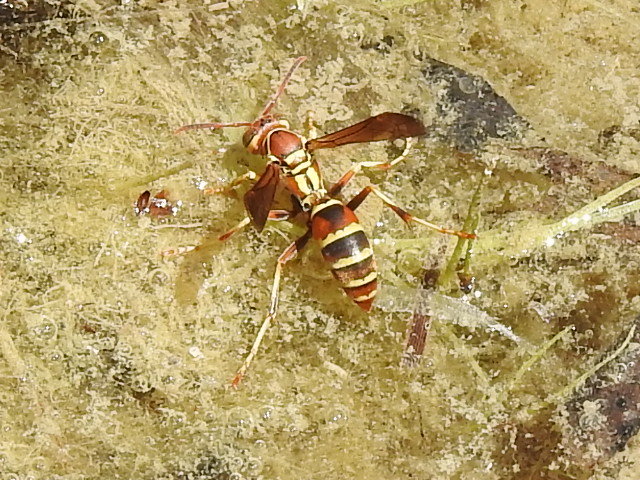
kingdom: Animalia
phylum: Arthropoda
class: Insecta
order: Hymenoptera
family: Eumenidae
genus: Polistes
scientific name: Polistes dorsalis
